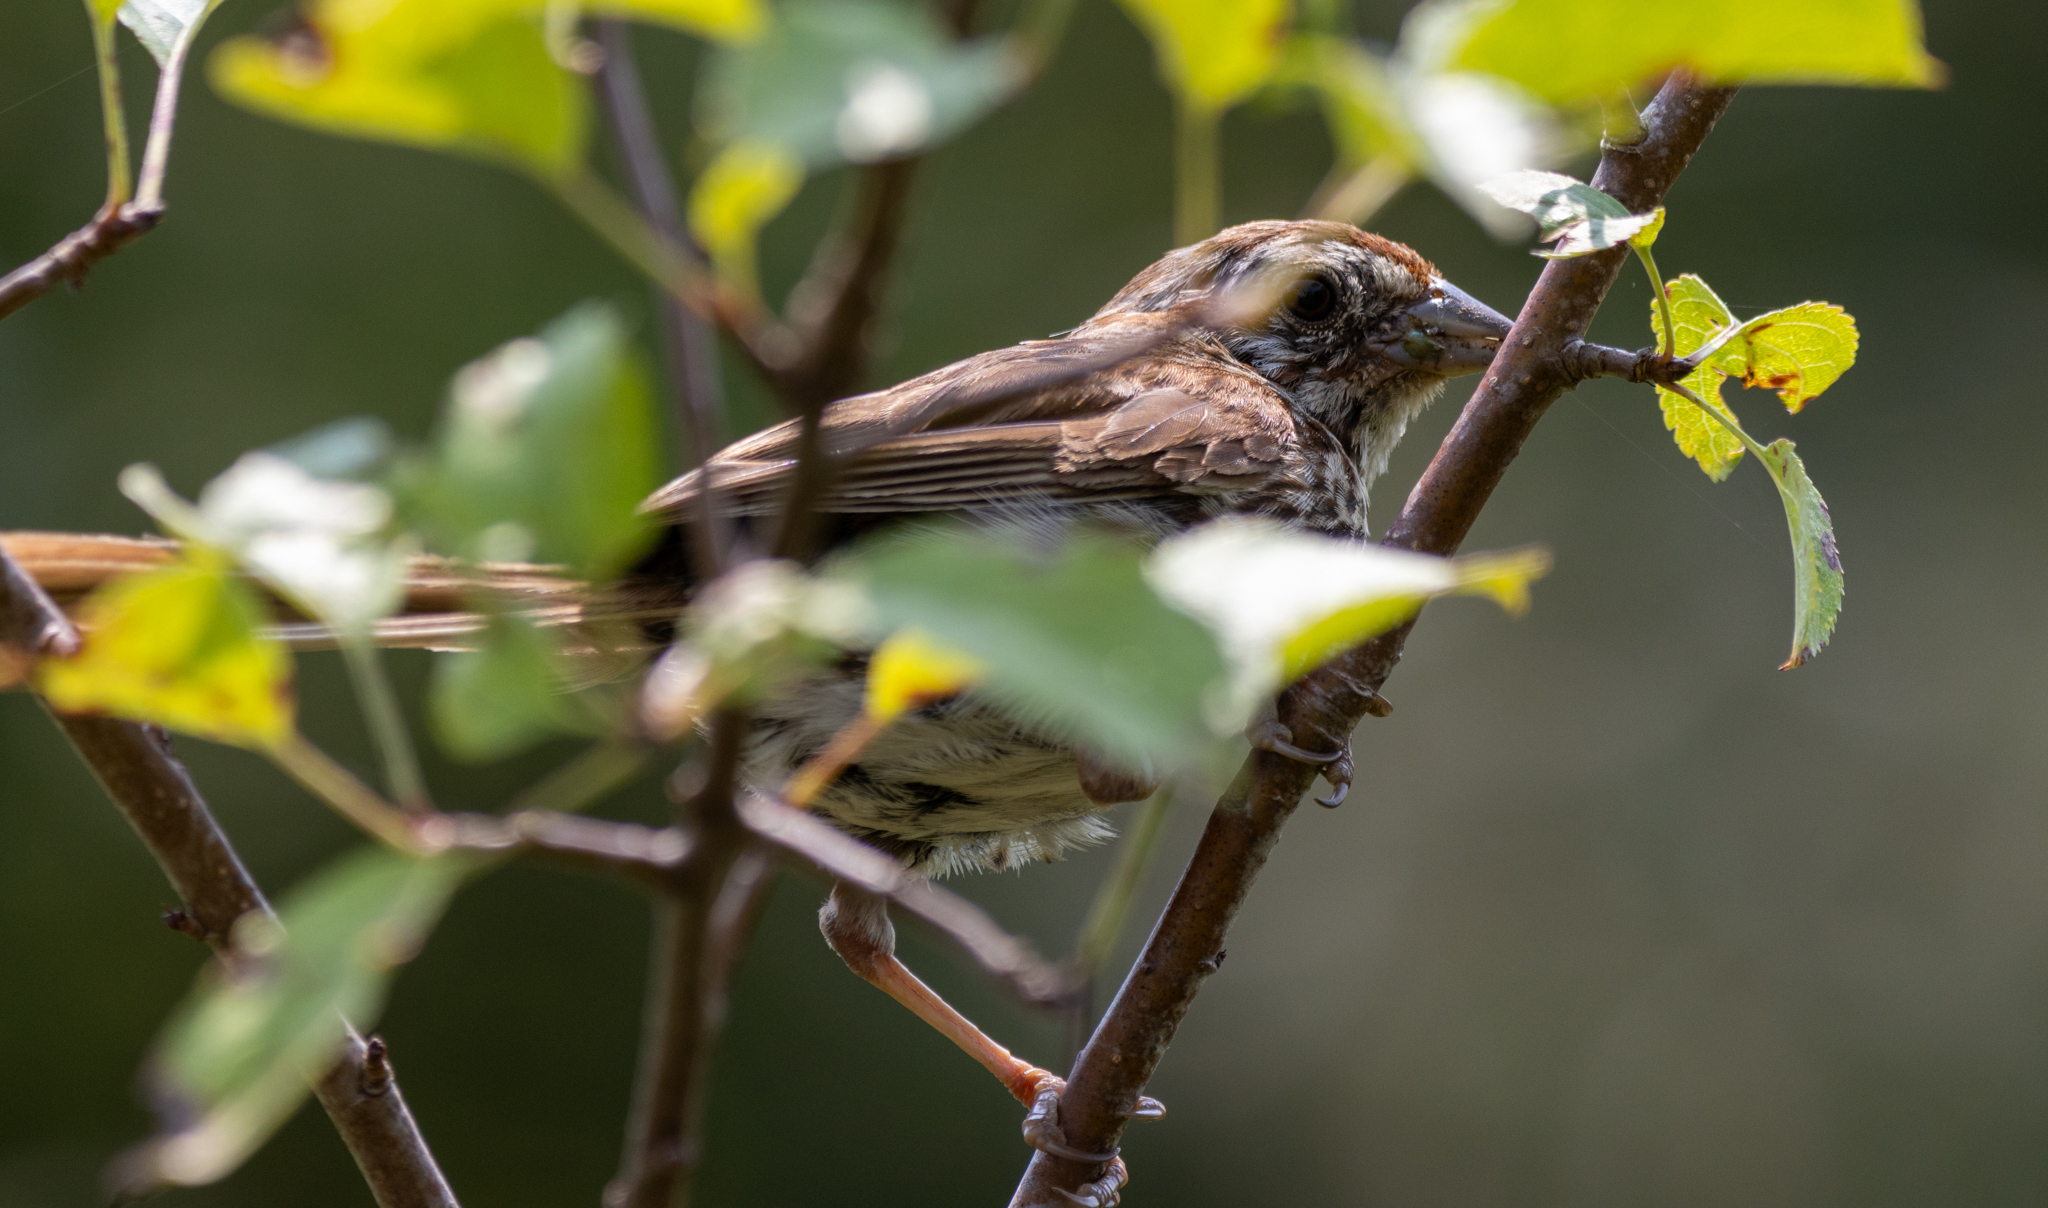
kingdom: Animalia
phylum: Chordata
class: Aves
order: Passeriformes
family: Passerellidae
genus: Melospiza
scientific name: Melospiza melodia
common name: Song sparrow
